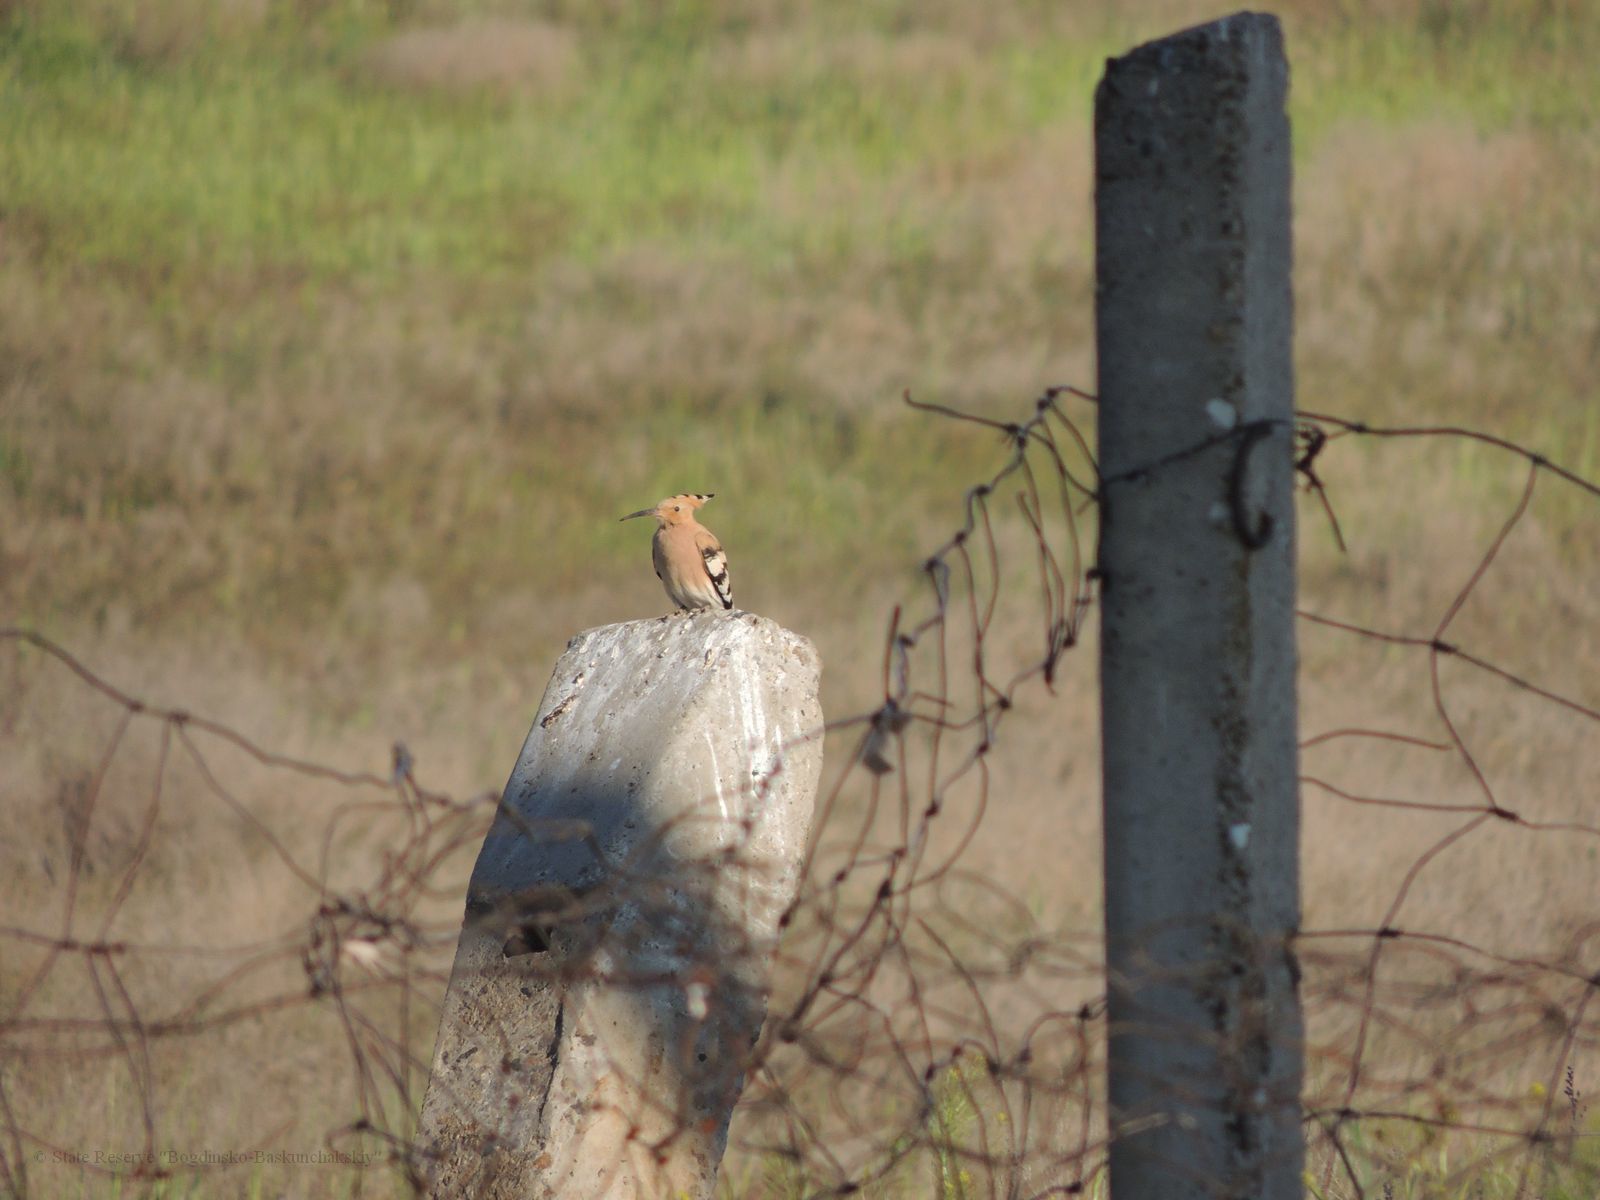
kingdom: Animalia
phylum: Chordata
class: Aves
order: Bucerotiformes
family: Upupidae
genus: Upupa
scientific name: Upupa epops
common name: Eurasian hoopoe
